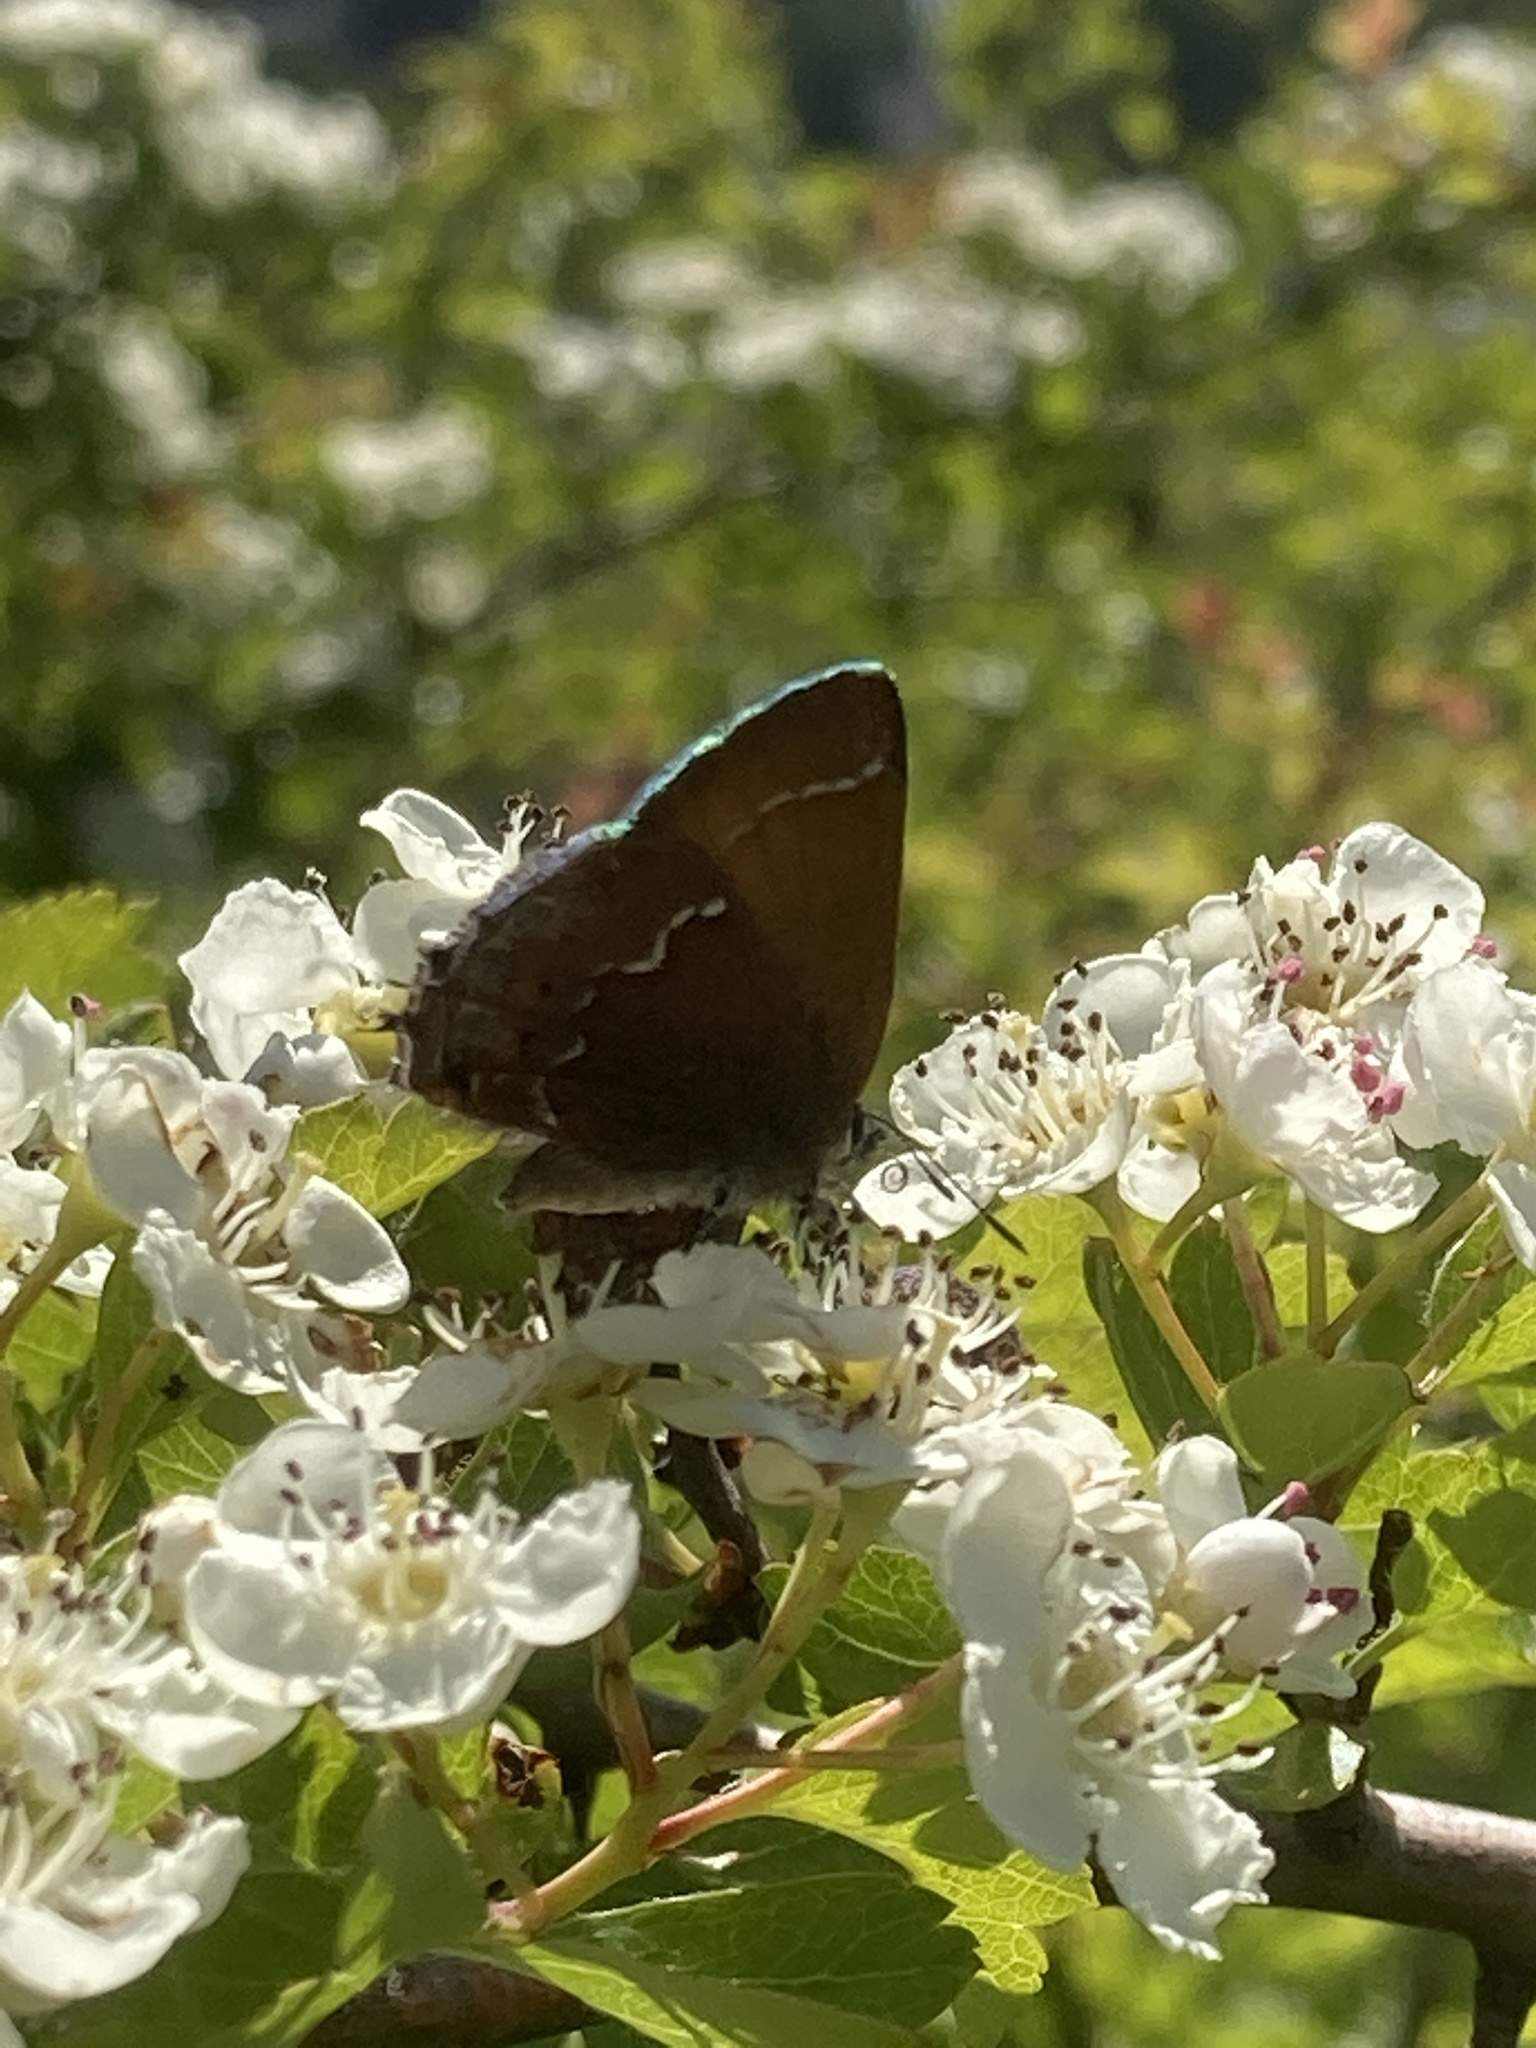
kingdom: Animalia
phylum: Arthropoda
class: Insecta
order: Lepidoptera
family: Lycaenidae
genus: Mitoura
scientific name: Mitoura gryneus
